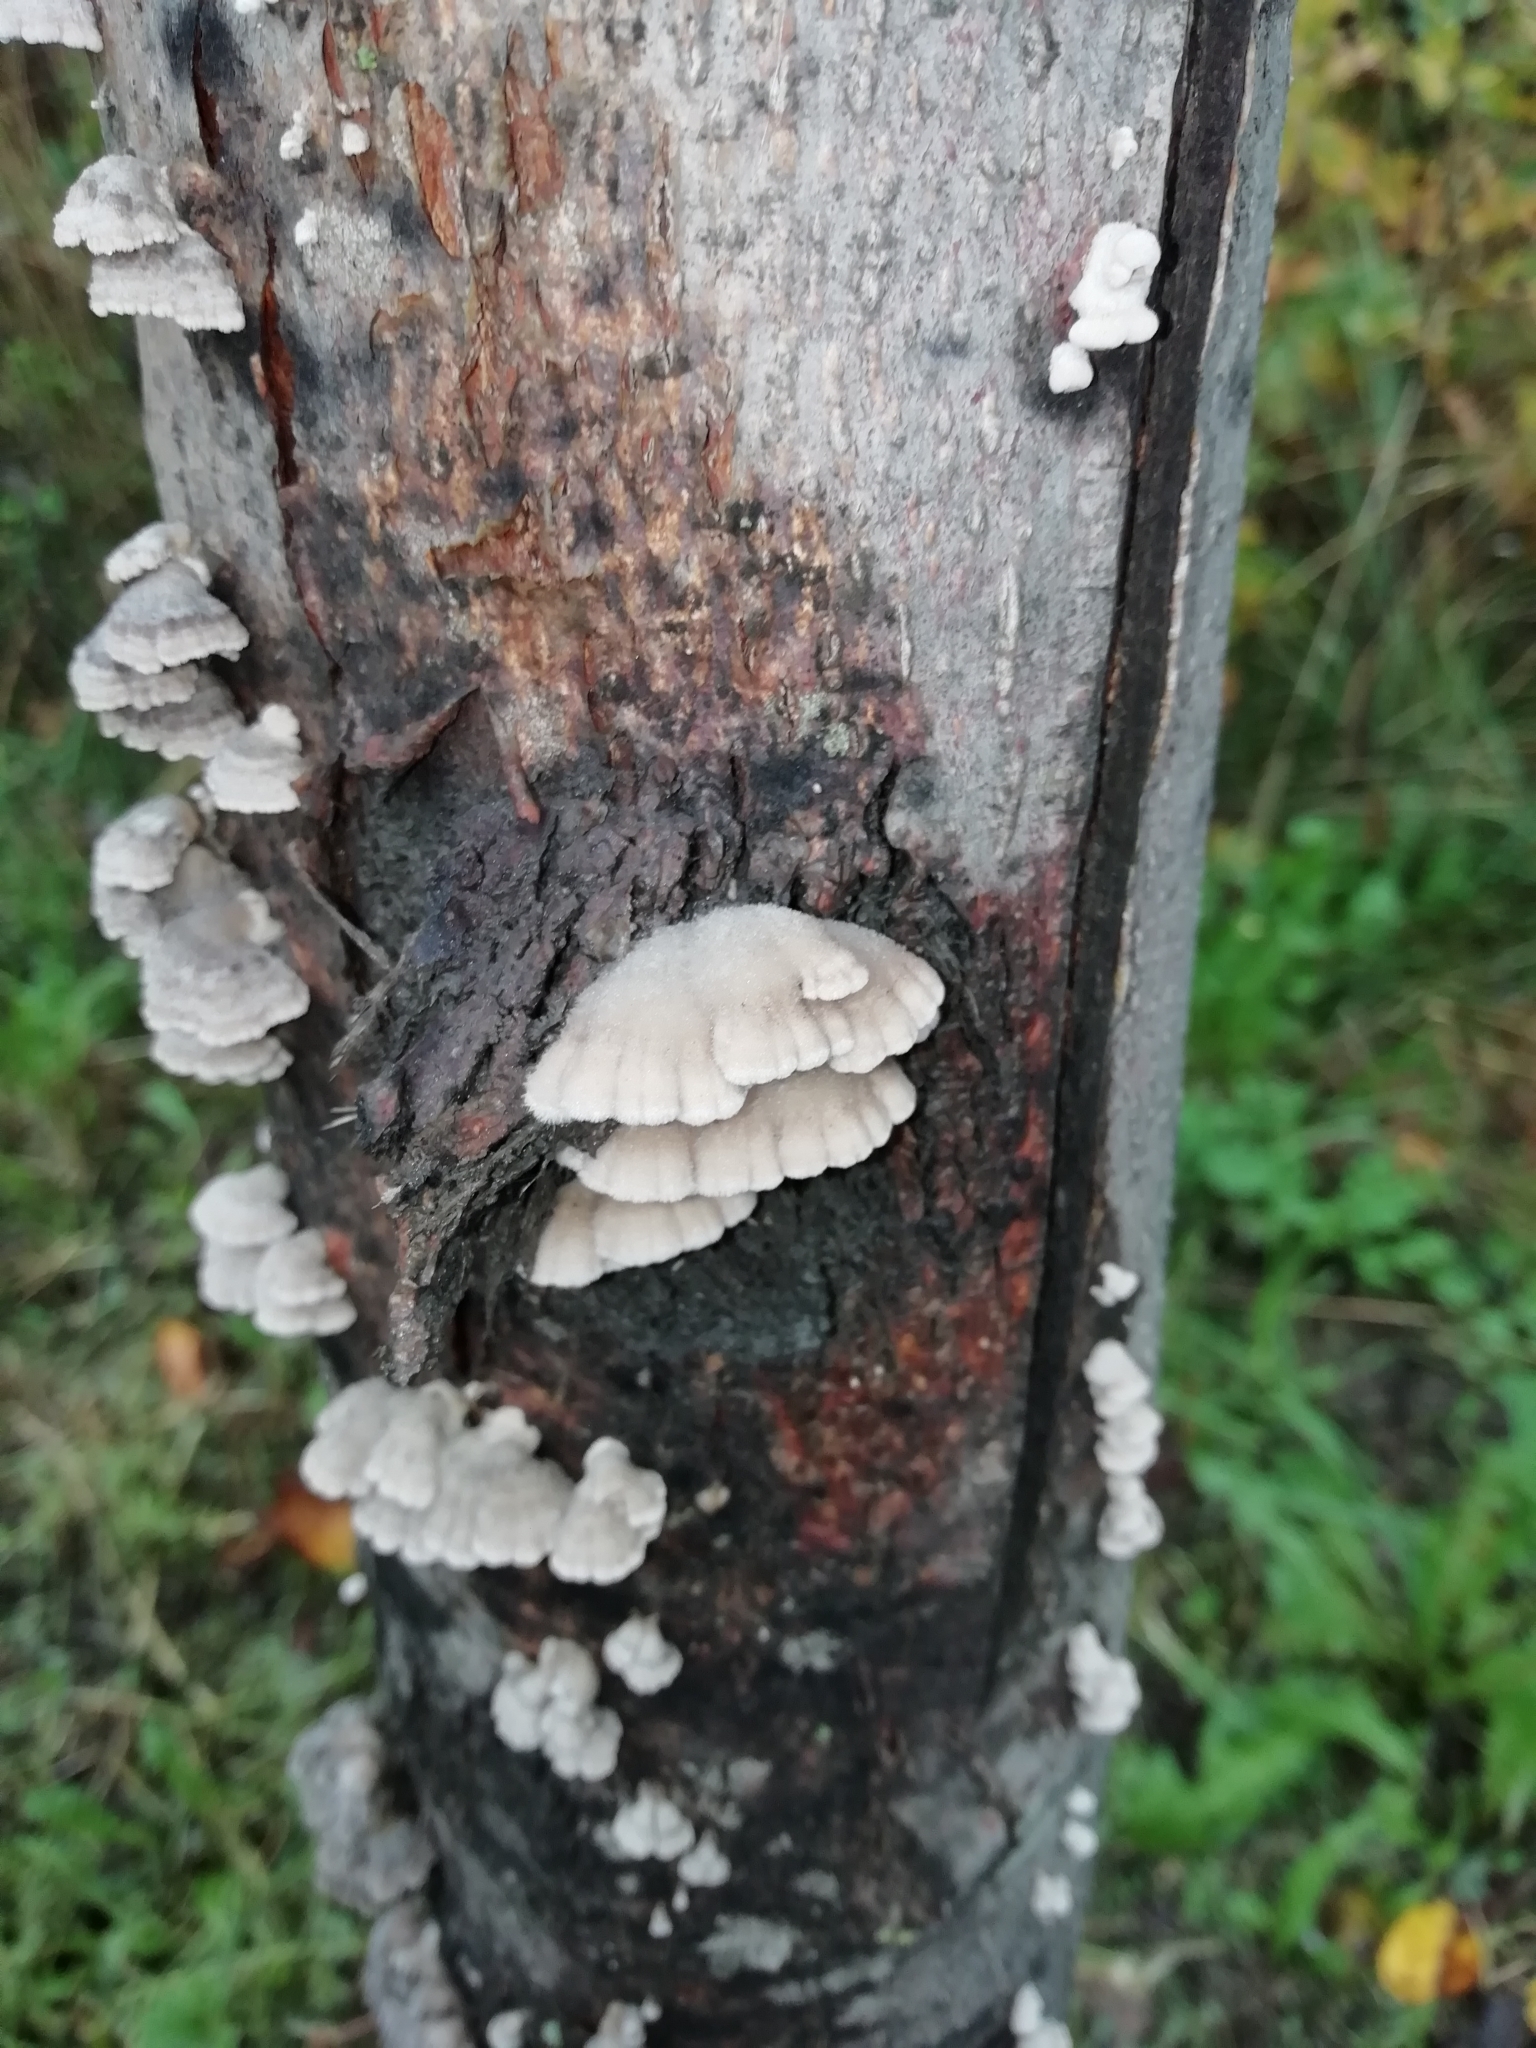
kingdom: Fungi
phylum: Basidiomycota
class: Agaricomycetes
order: Agaricales
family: Schizophyllaceae
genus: Schizophyllum
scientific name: Schizophyllum commune
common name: Common porecrust
